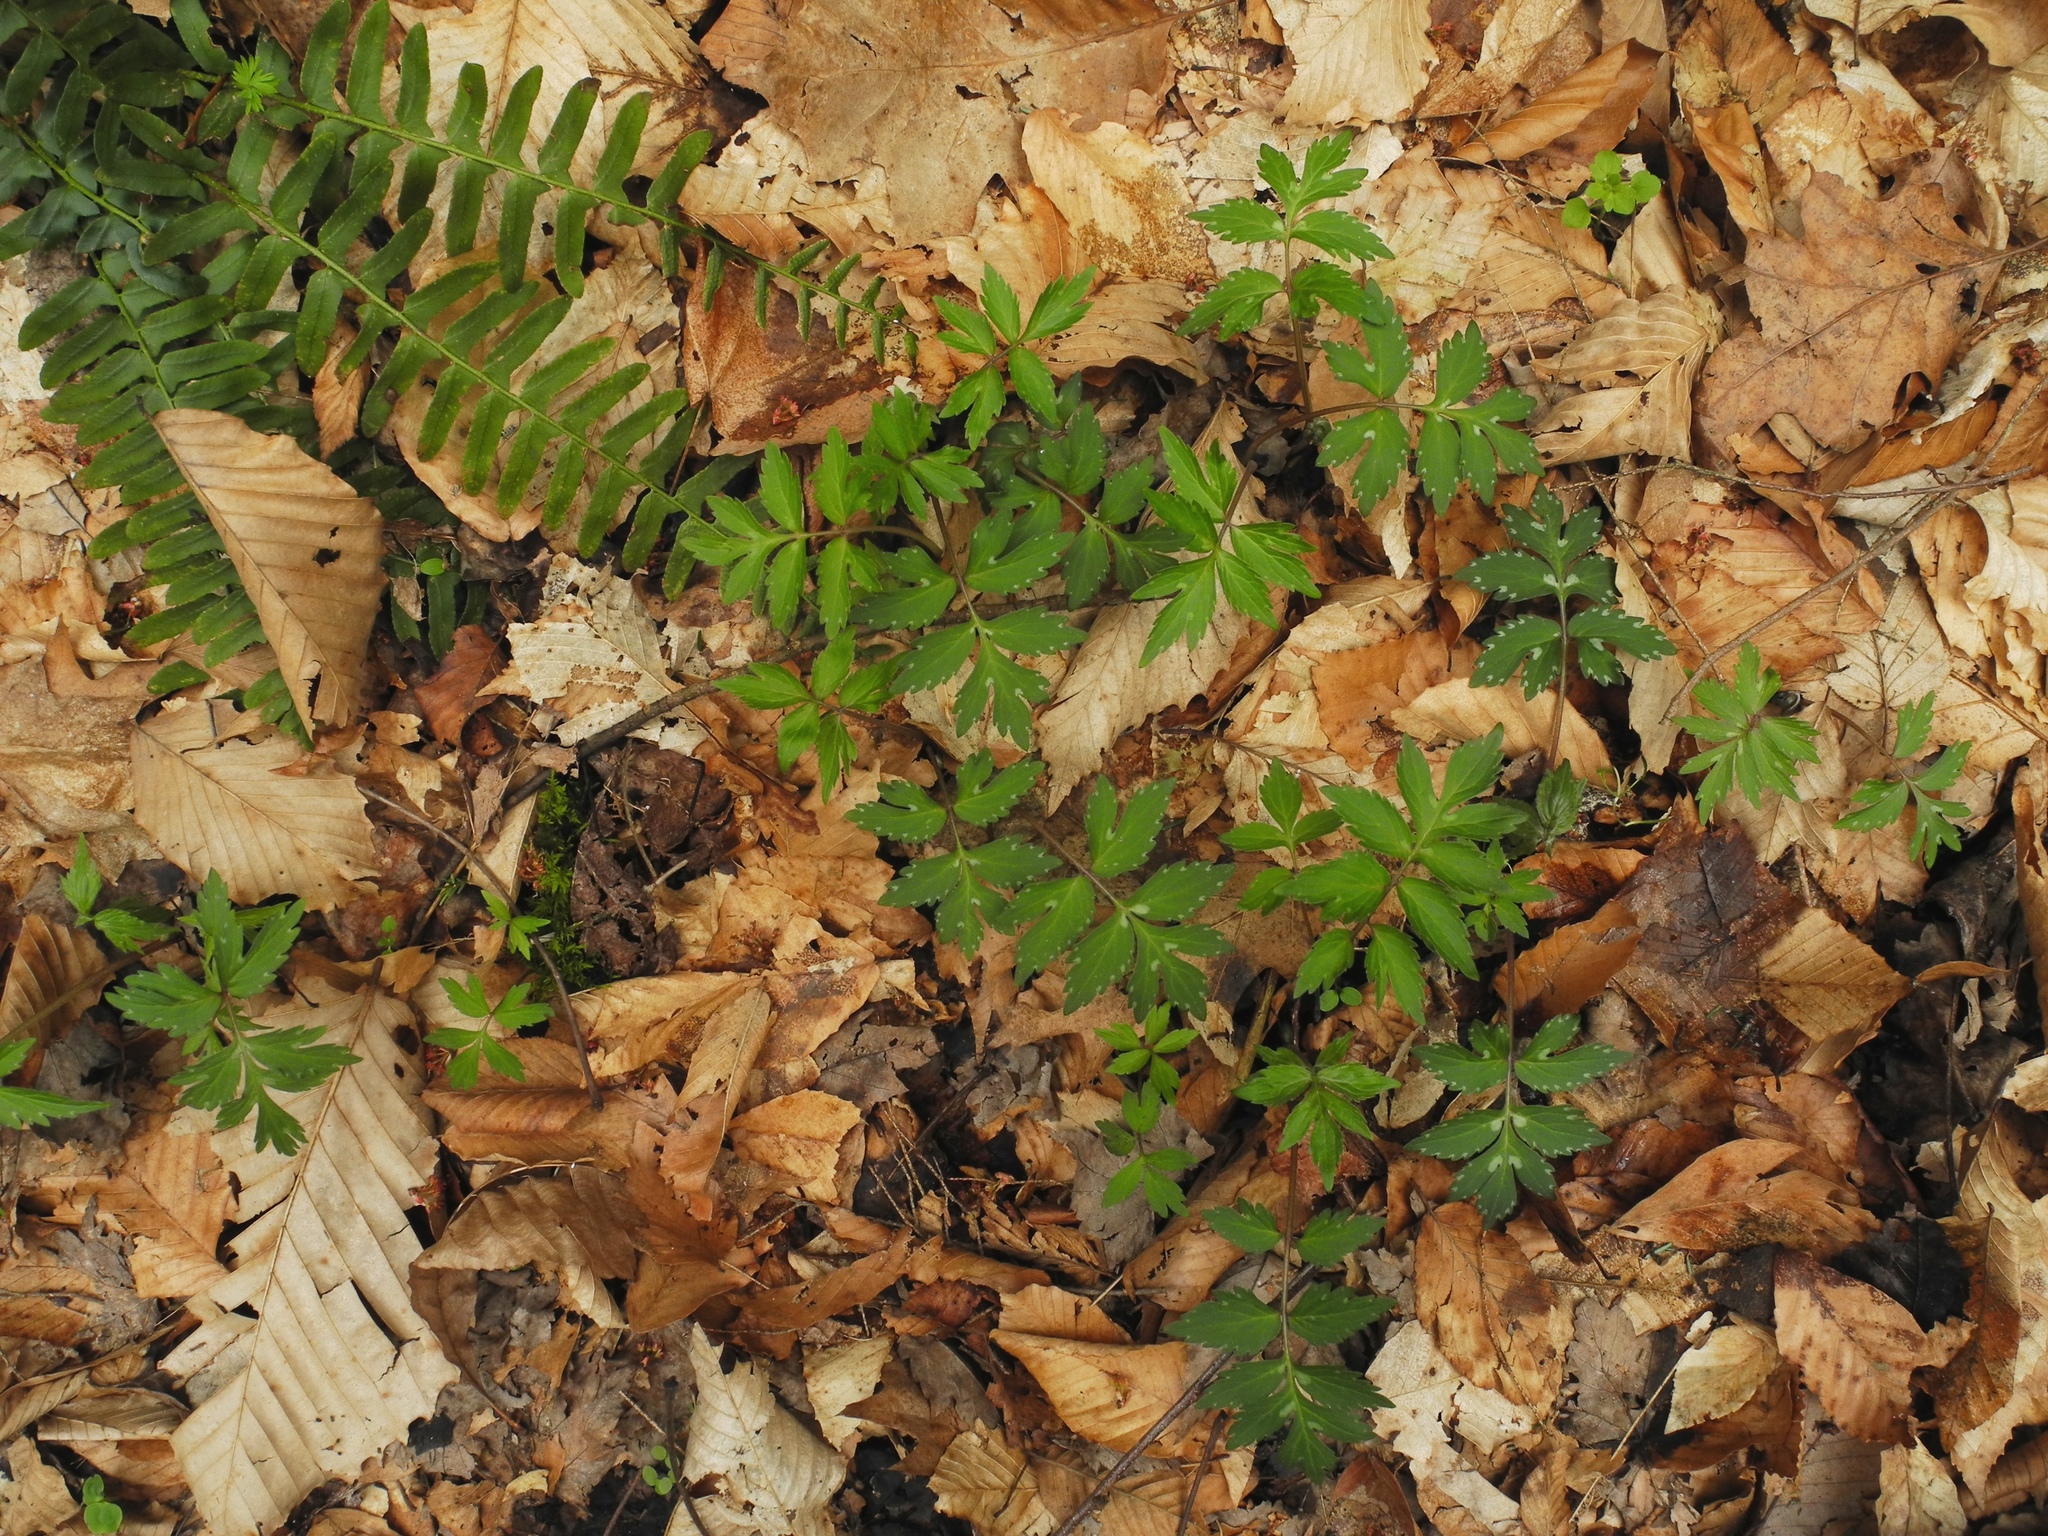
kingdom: Plantae
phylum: Tracheophyta
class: Magnoliopsida
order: Boraginales
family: Hydrophyllaceae
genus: Hydrophyllum
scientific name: Hydrophyllum virginianum
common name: Virginia waterleaf
